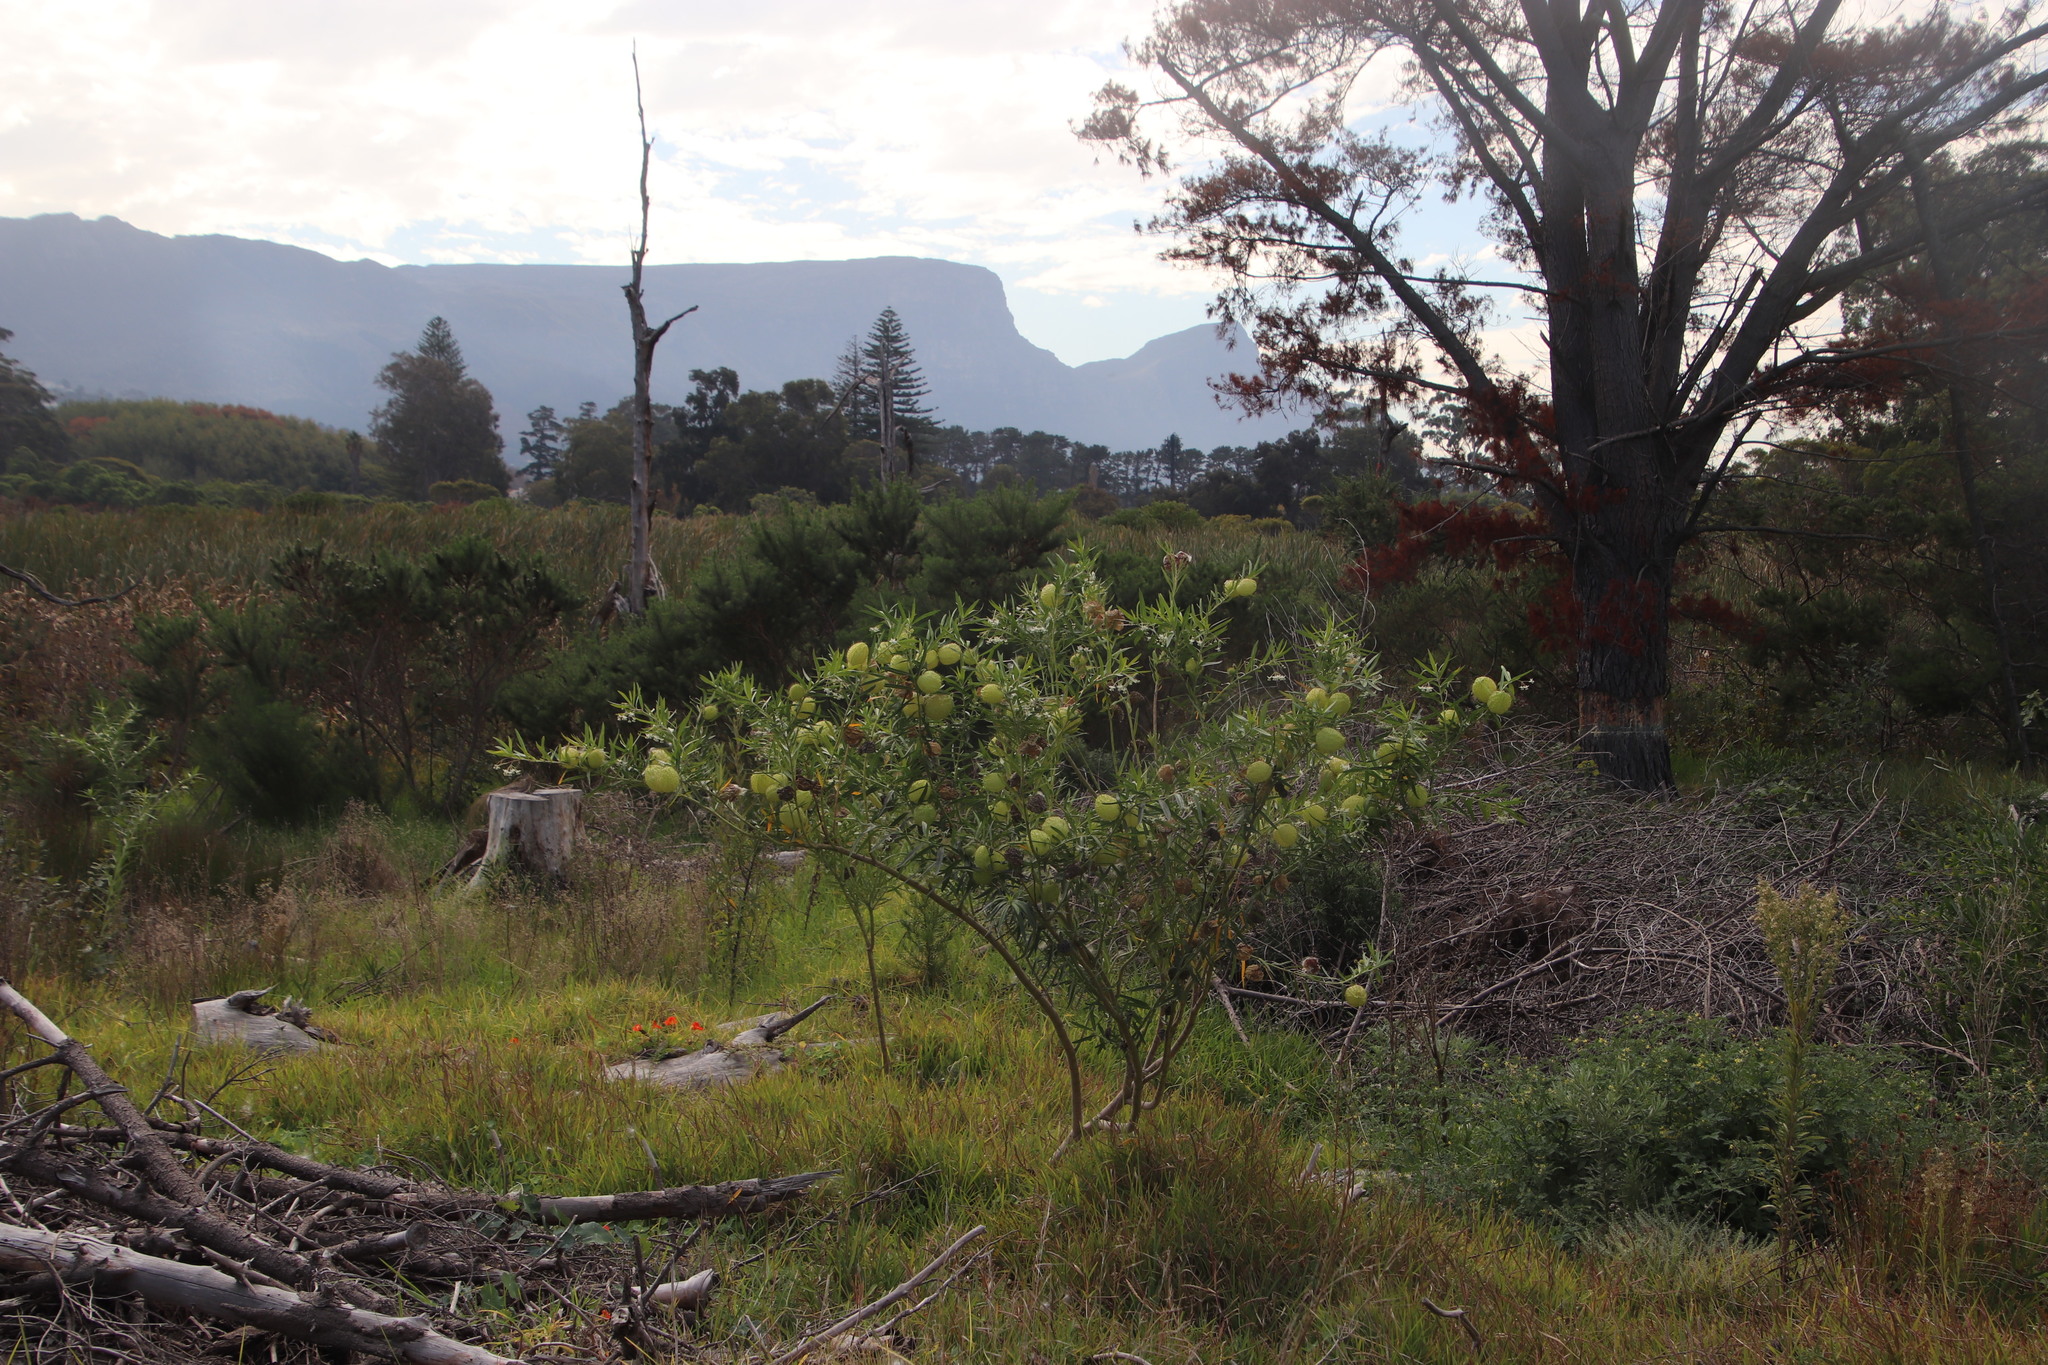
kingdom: Plantae
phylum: Tracheophyta
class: Magnoliopsida
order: Gentianales
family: Apocynaceae
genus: Gomphocarpus
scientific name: Gomphocarpus physocarpus
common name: Balloon cotton bush
